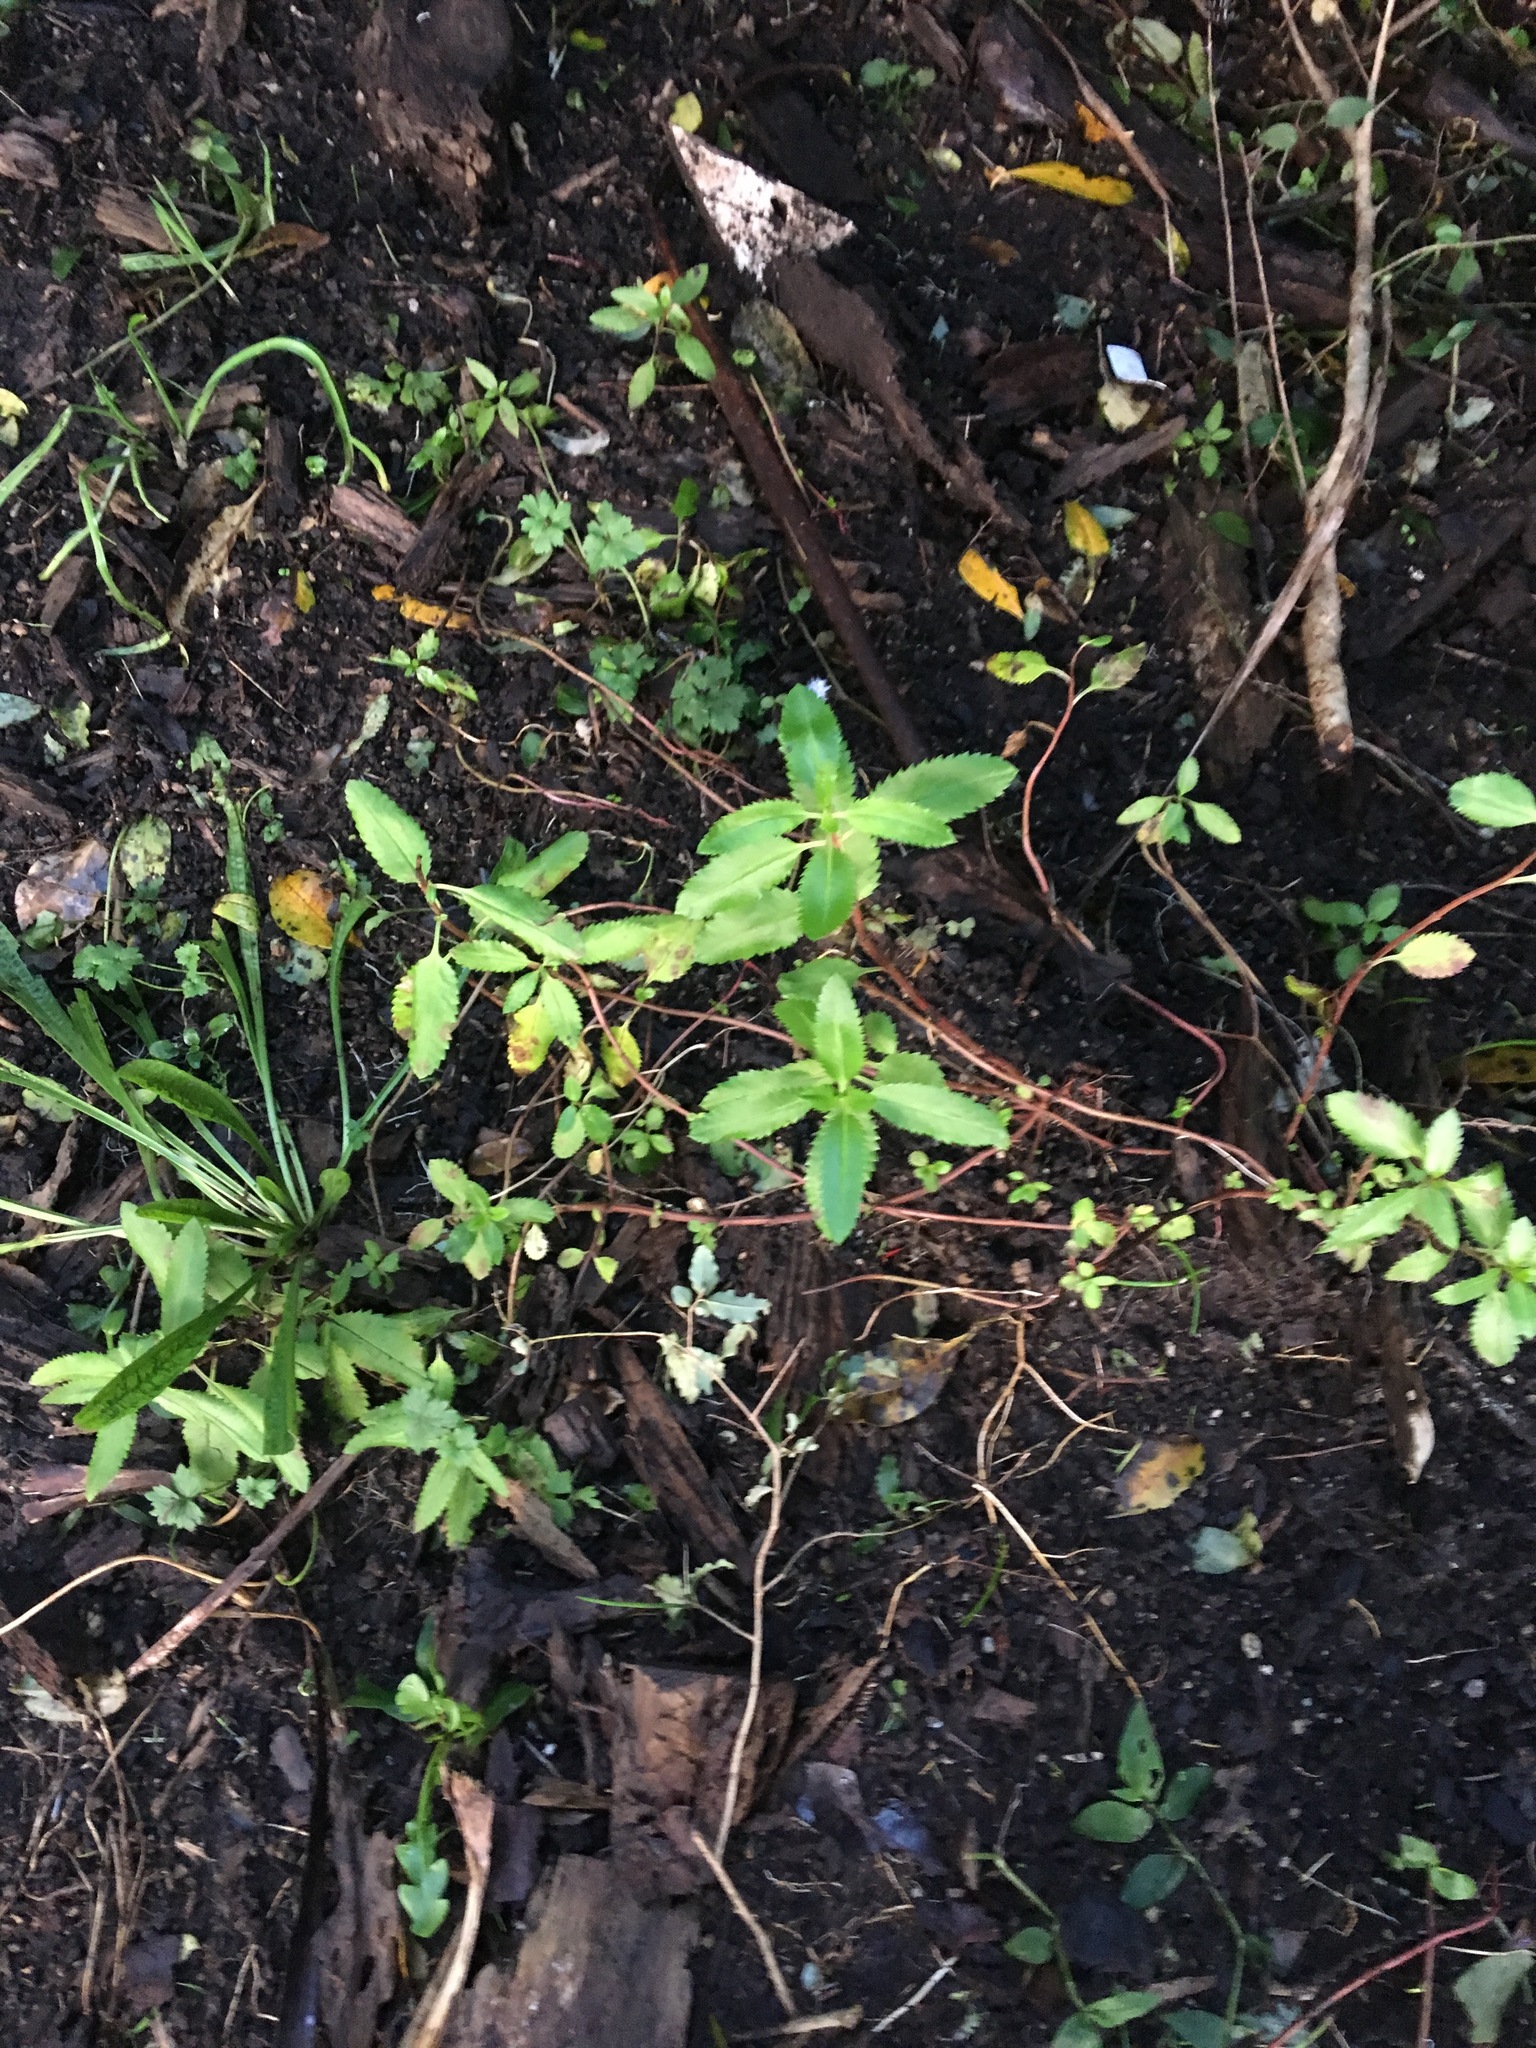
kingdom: Plantae
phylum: Tracheophyta
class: Magnoliopsida
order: Saxifragales
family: Haloragaceae
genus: Haloragis
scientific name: Haloragis erecta
